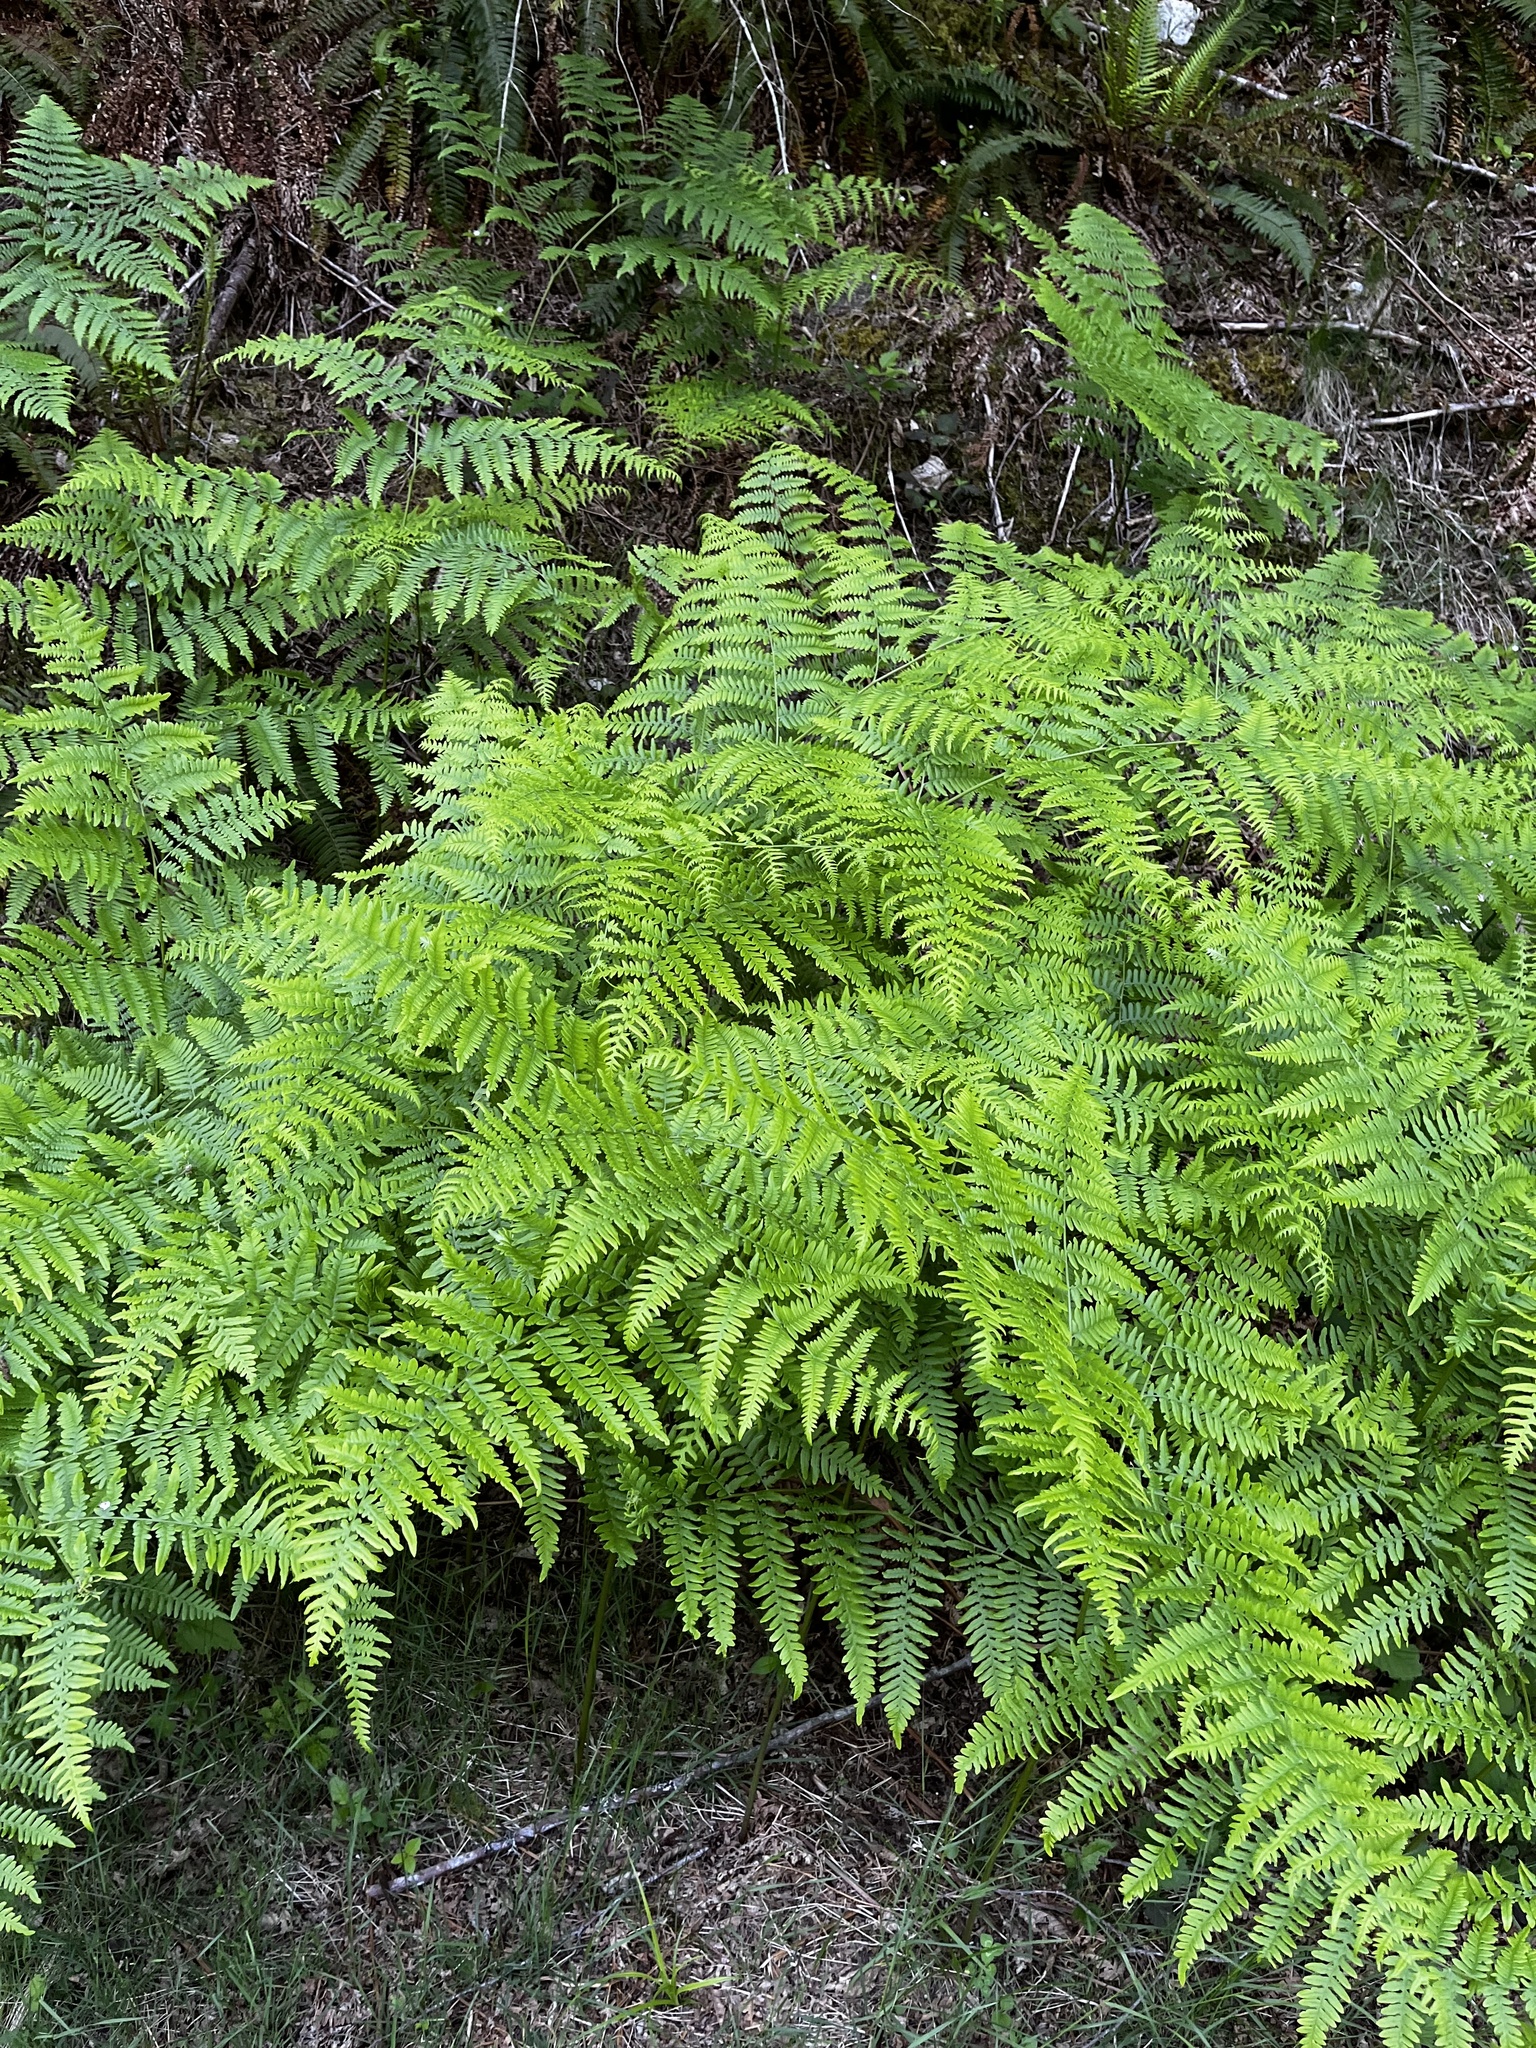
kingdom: Plantae
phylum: Tracheophyta
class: Polypodiopsida
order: Polypodiales
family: Dennstaedtiaceae
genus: Pteridium
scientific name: Pteridium aquilinum
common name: Bracken
